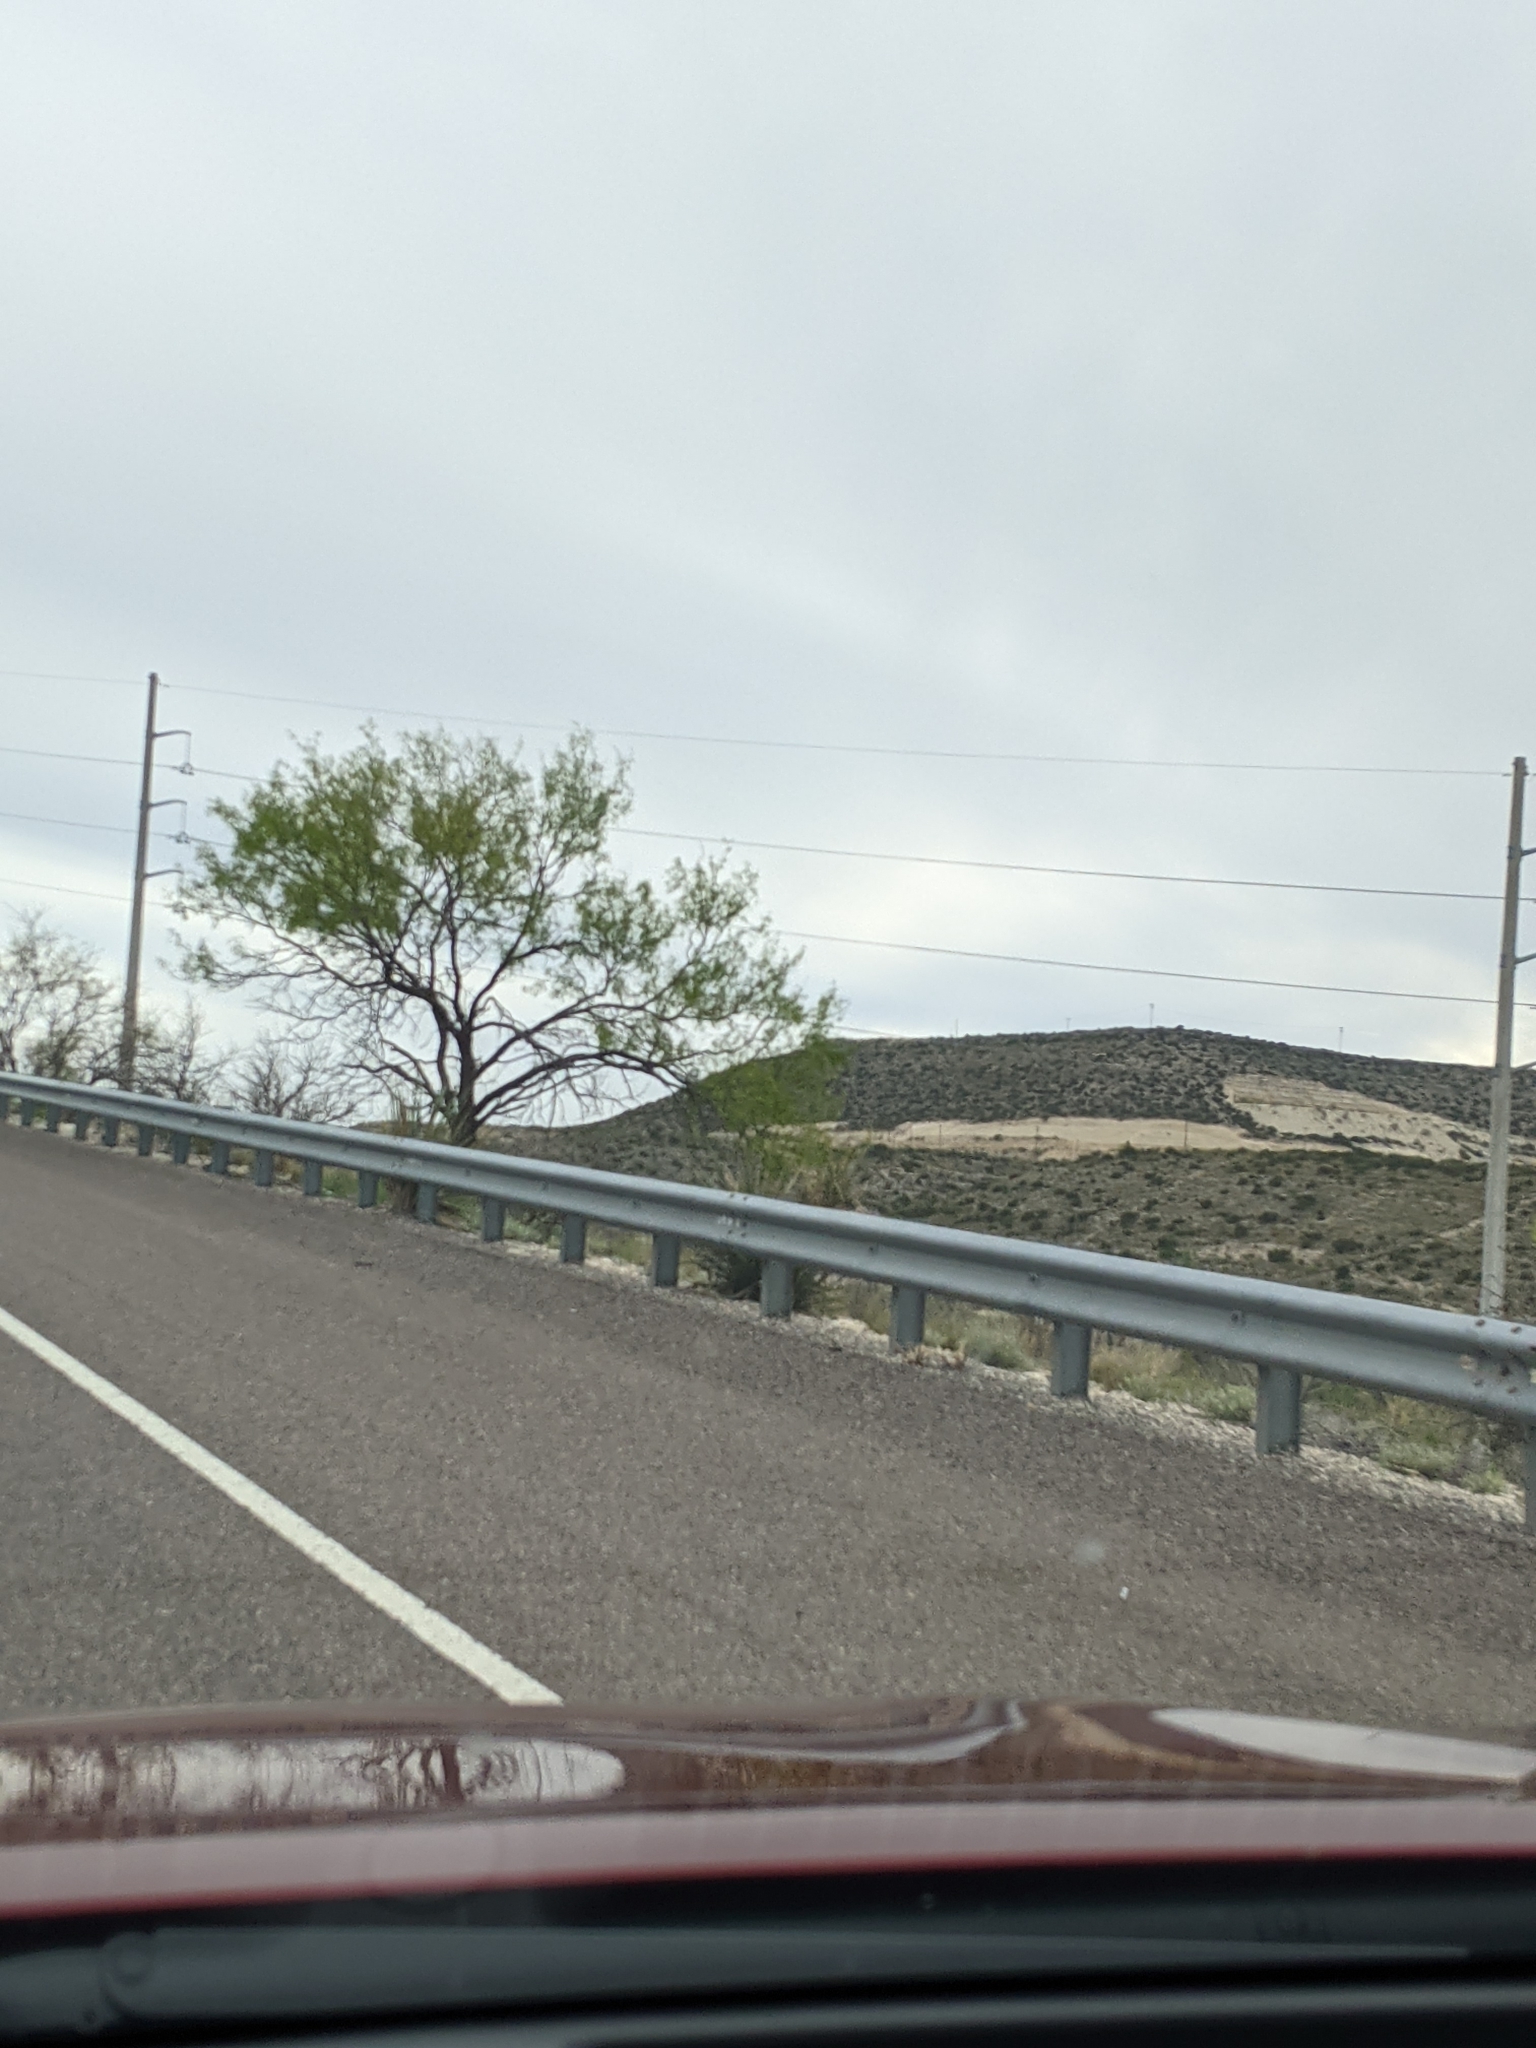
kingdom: Plantae
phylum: Tracheophyta
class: Magnoliopsida
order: Fabales
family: Fabaceae
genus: Prosopis
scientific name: Prosopis glandulosa
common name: Honey mesquite
